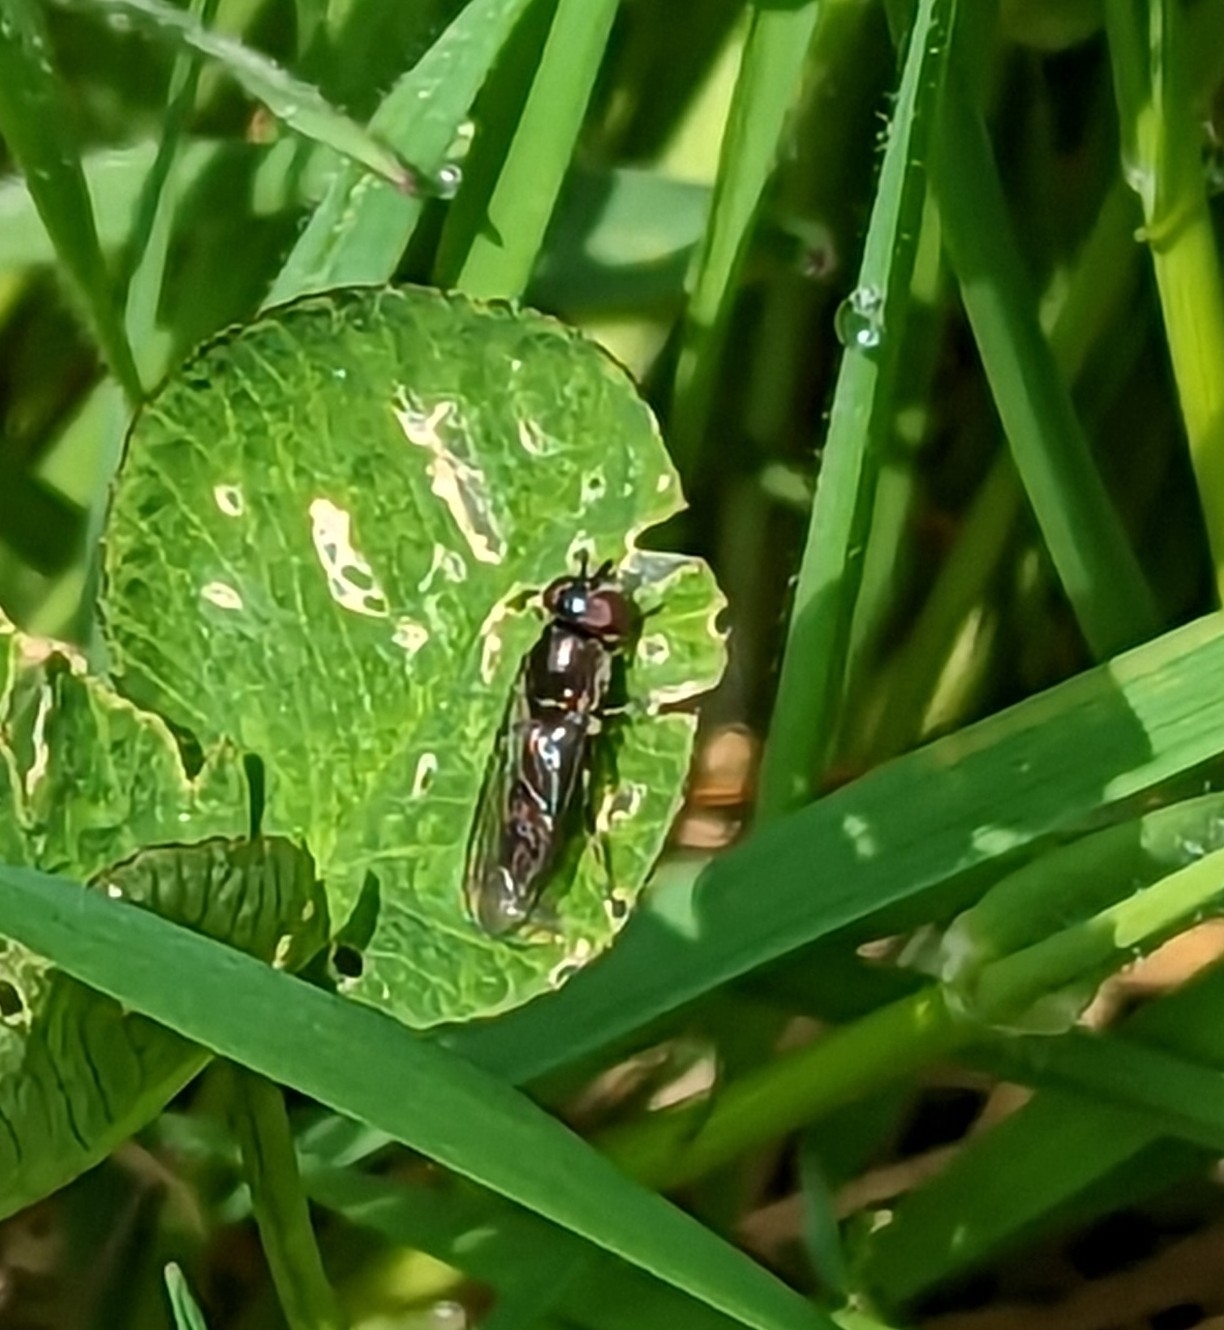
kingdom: Animalia
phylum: Arthropoda
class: Insecta
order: Diptera
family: Syrphidae
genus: Platycheirus
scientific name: Platycheirus
